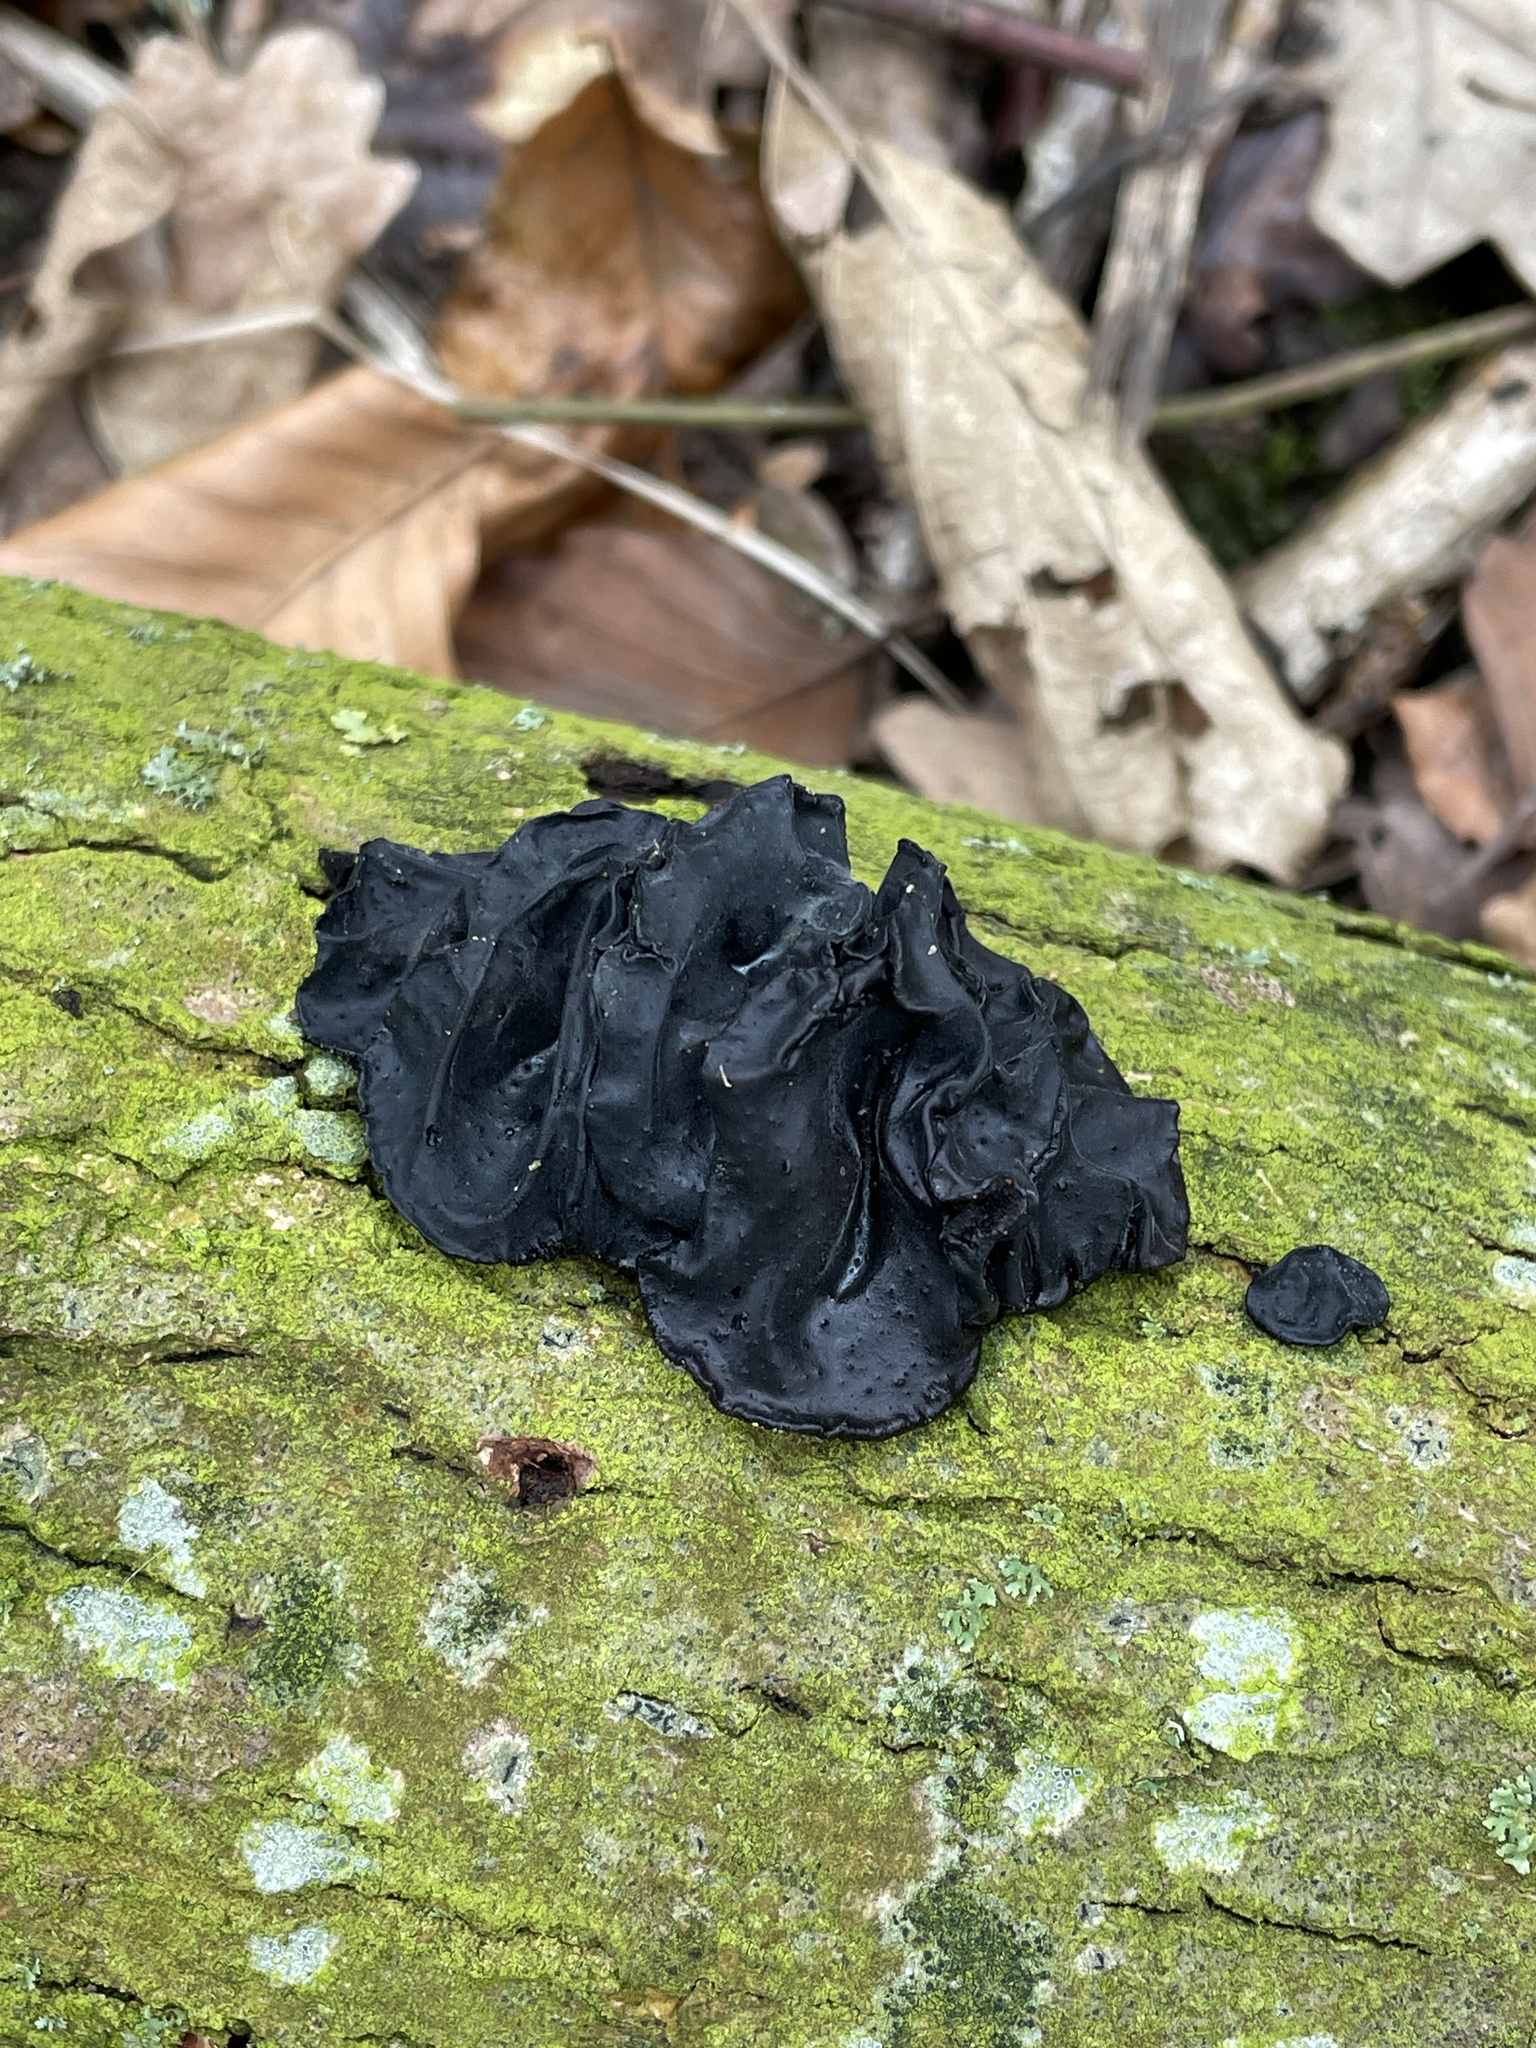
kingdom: Fungi
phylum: Basidiomycota
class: Agaricomycetes
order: Auriculariales
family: Auriculariaceae
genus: Exidia
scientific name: Exidia glandulosa
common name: Witches' butter
